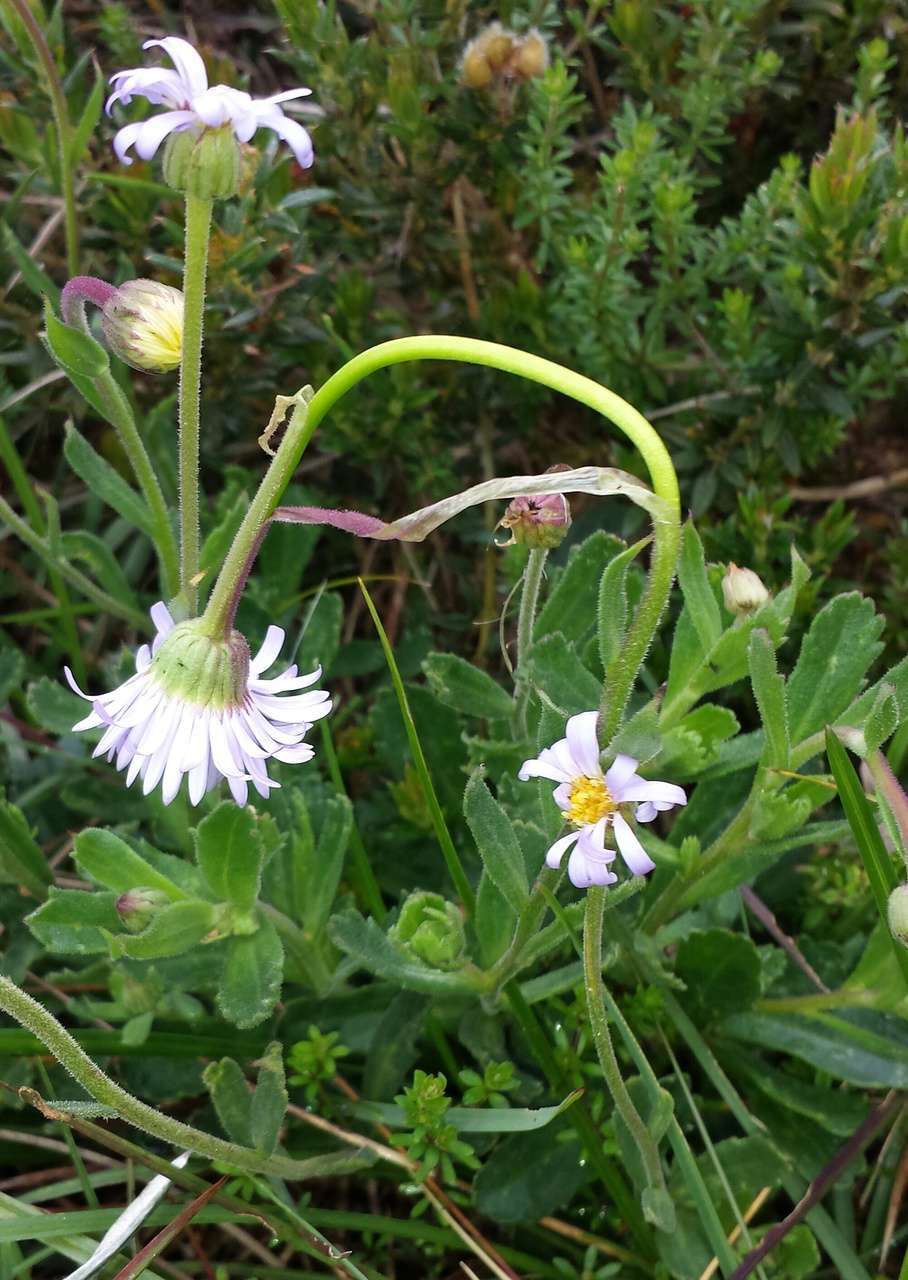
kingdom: Plantae
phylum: Tracheophyta
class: Magnoliopsida
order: Asterales
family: Asteraceae
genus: Brachyscome
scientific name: Brachyscome spathulata
